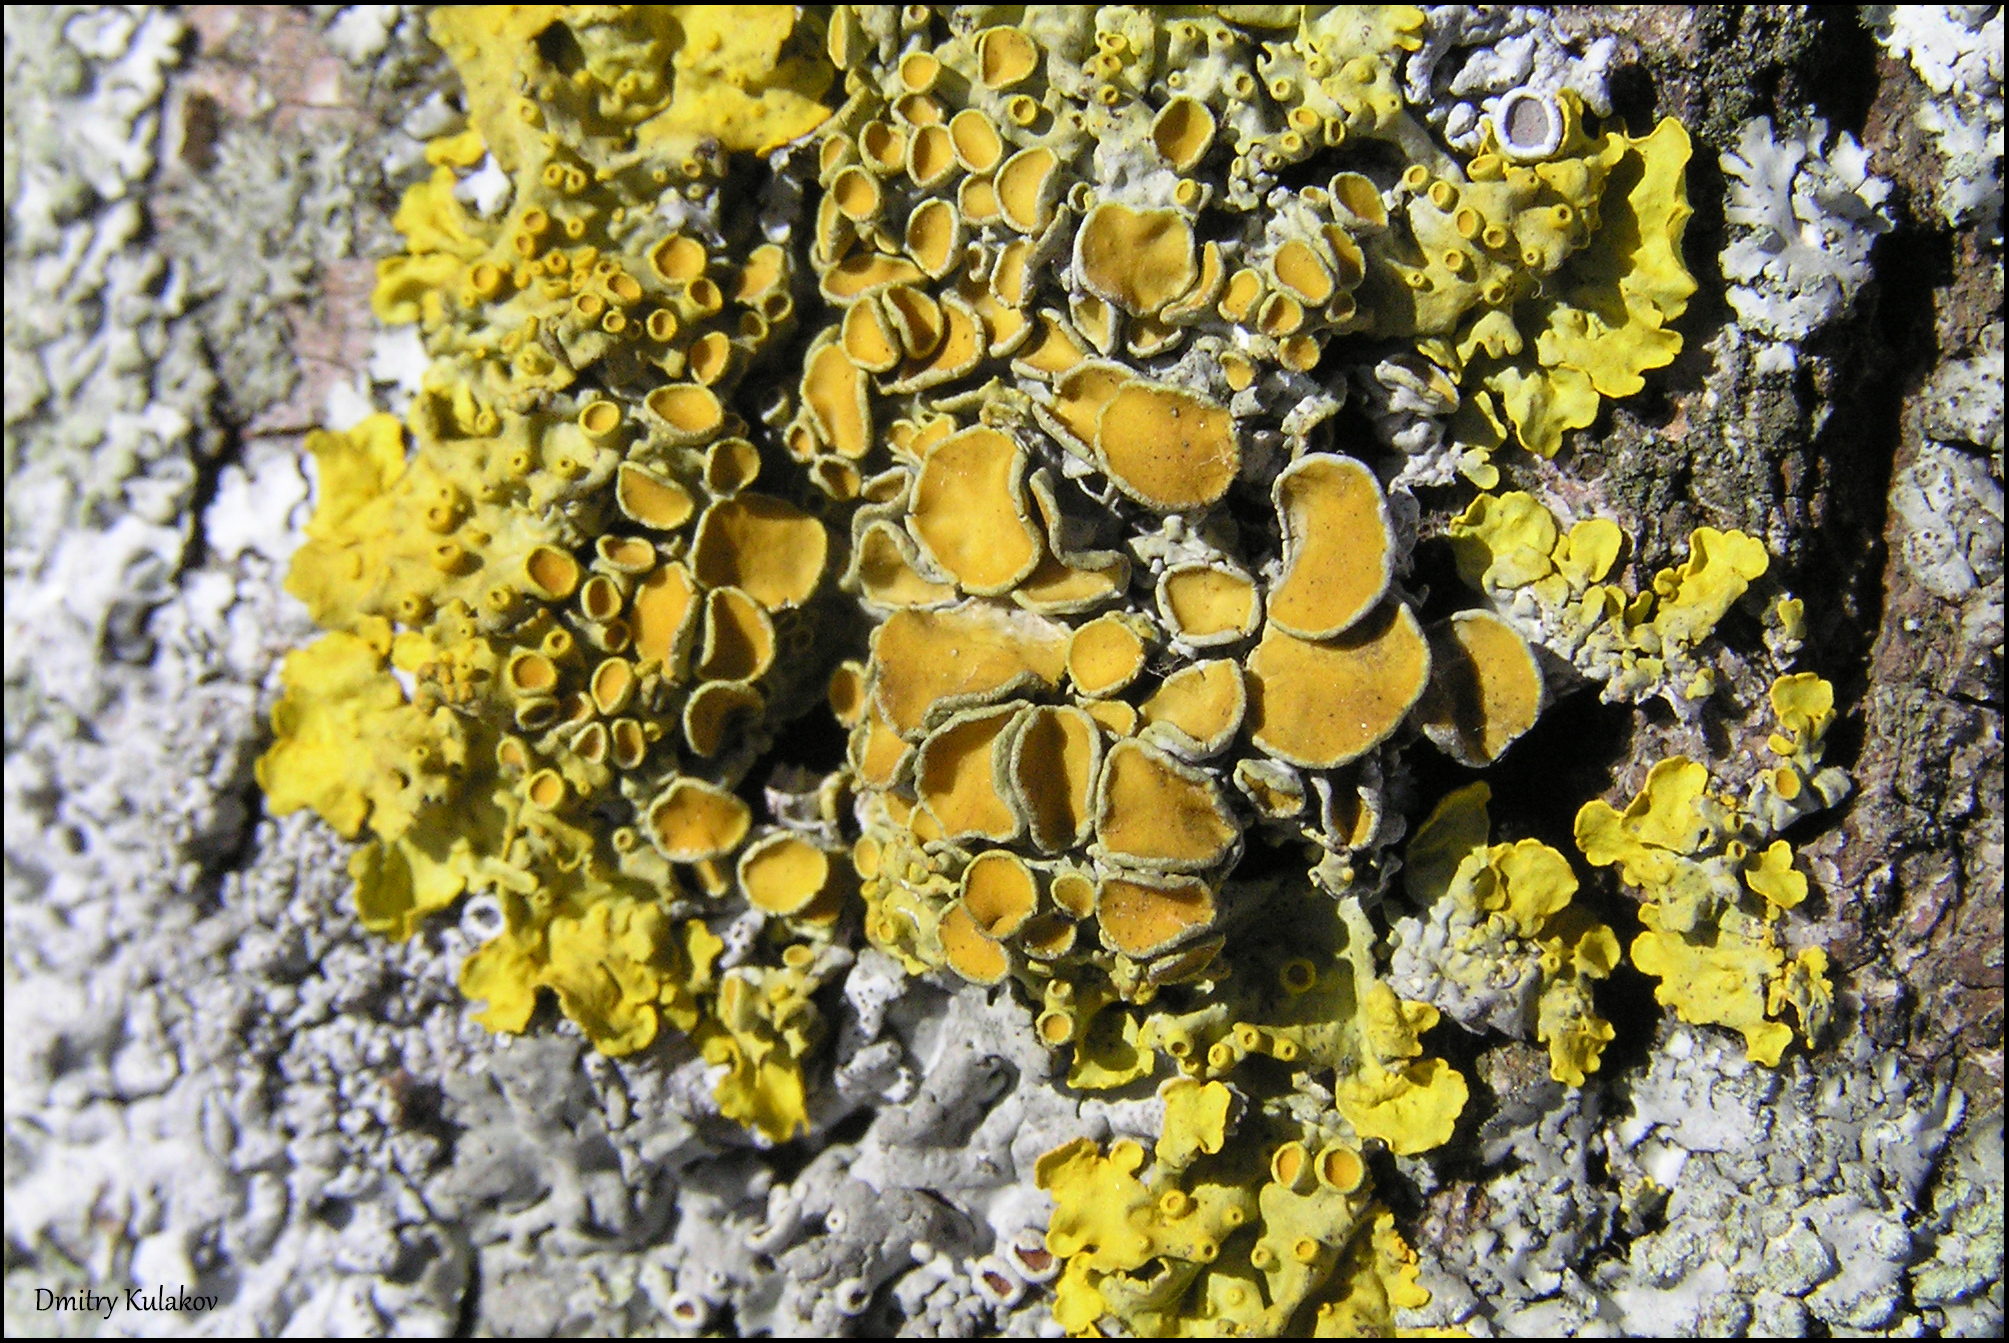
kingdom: Fungi
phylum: Ascomycota
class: Lecanoromycetes
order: Teloschistales
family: Teloschistaceae
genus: Xanthoria
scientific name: Xanthoria parietina
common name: Common orange lichen
